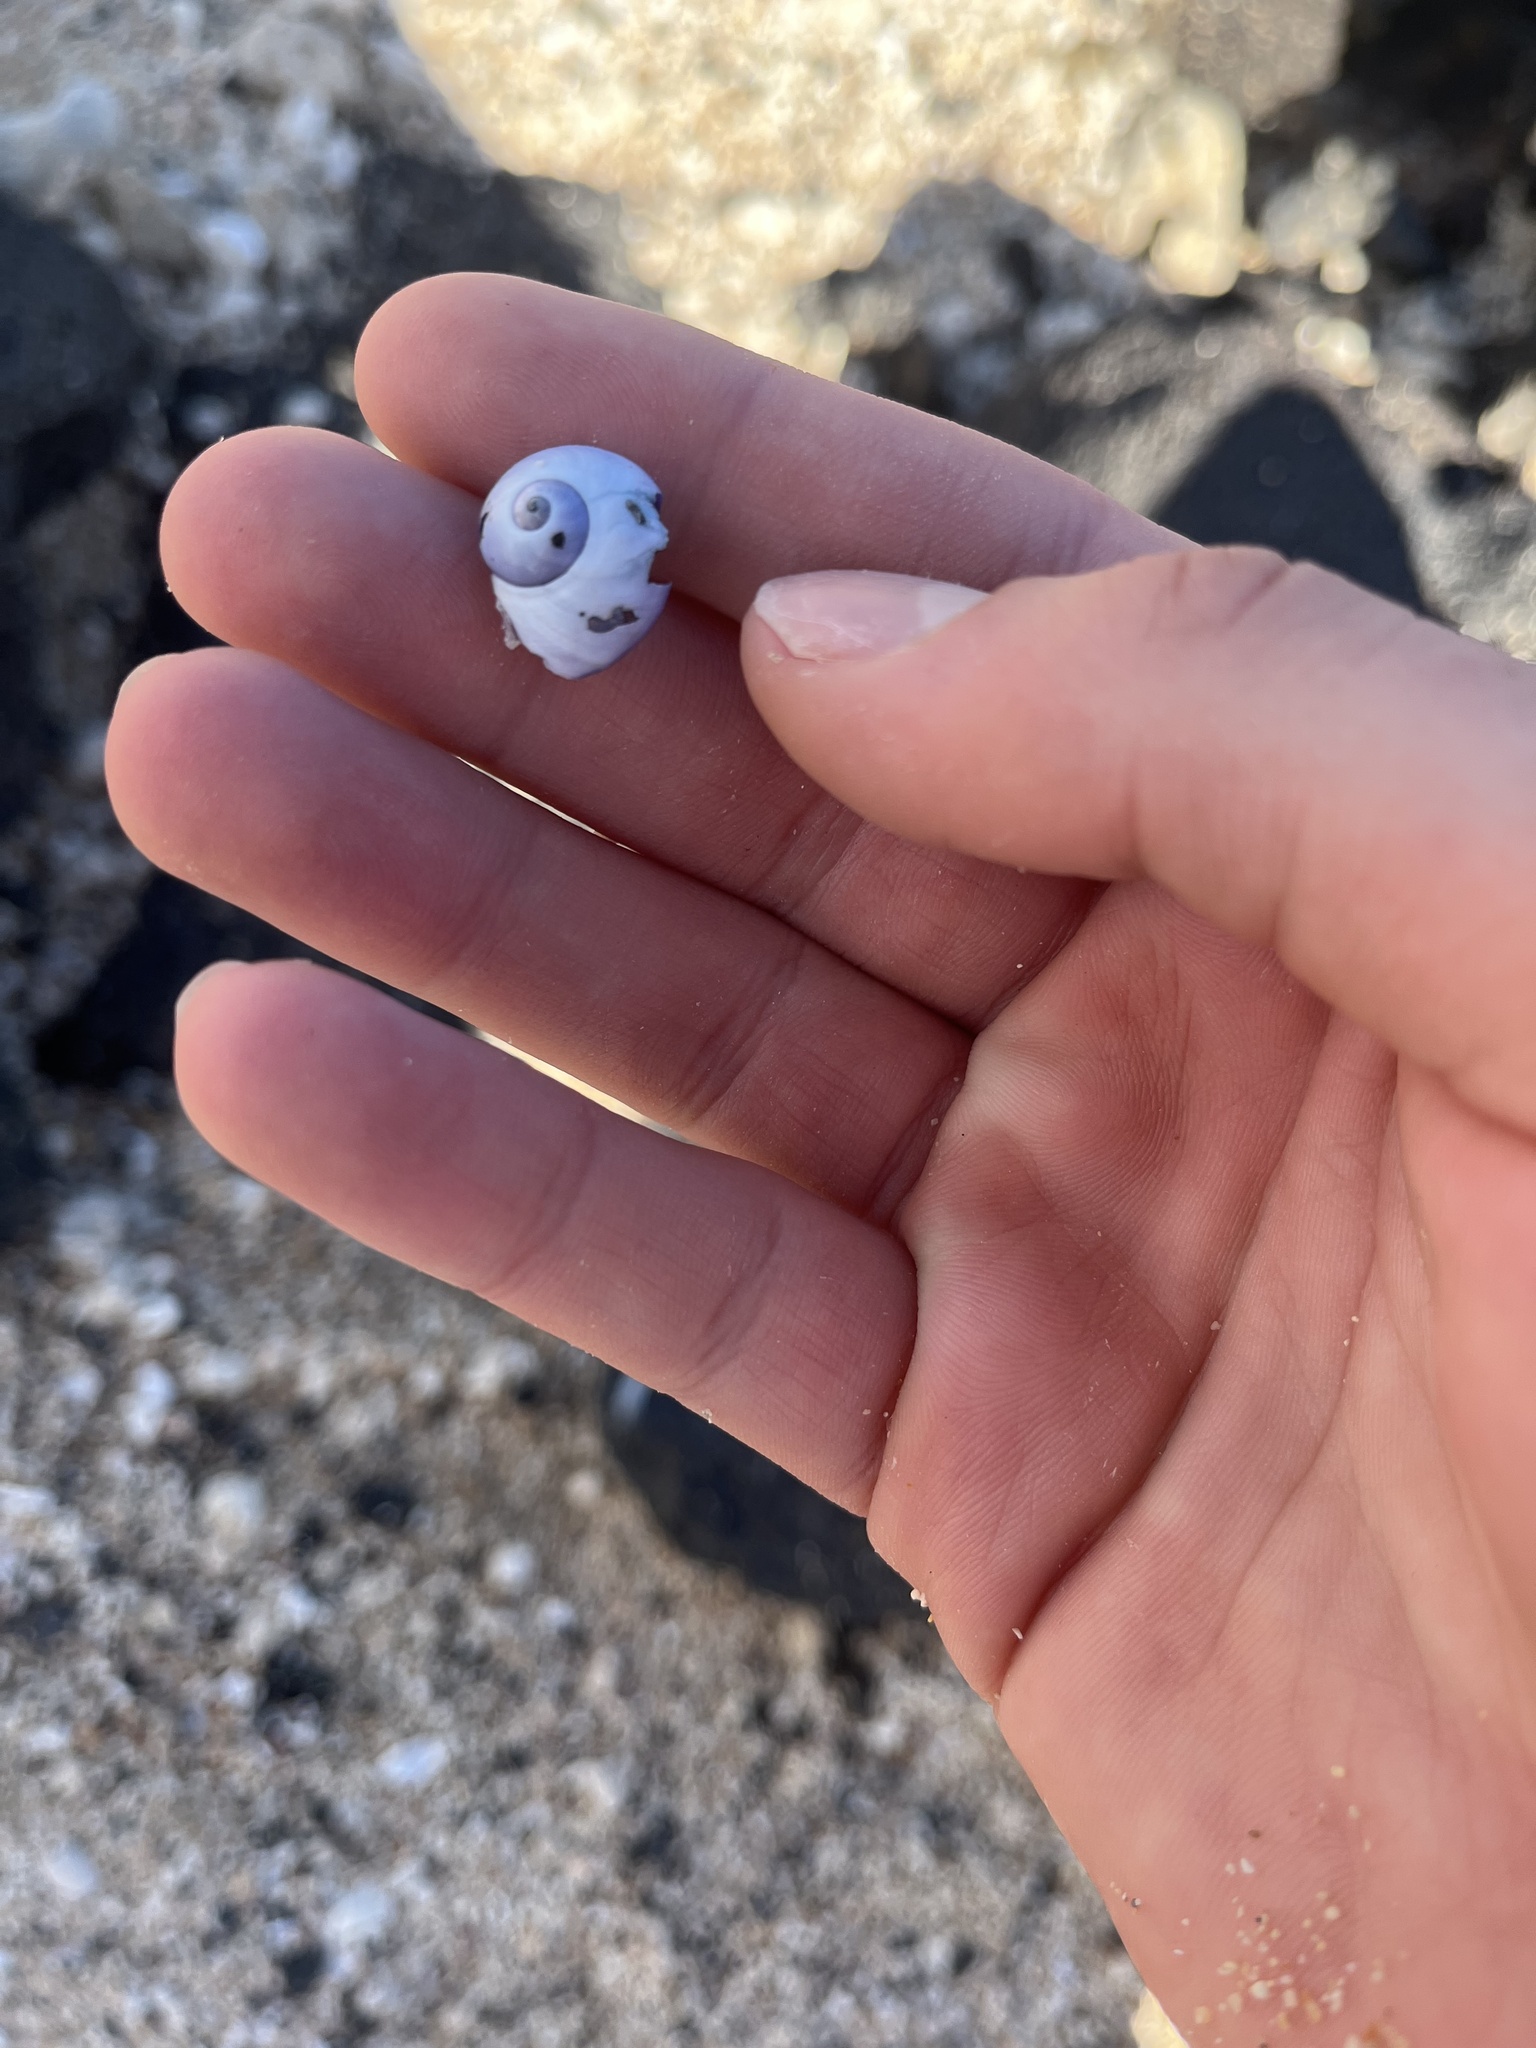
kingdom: Animalia
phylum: Mollusca
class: Gastropoda
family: Epitoniidae
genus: Janthina
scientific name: Janthina janthina
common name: Common janthina
